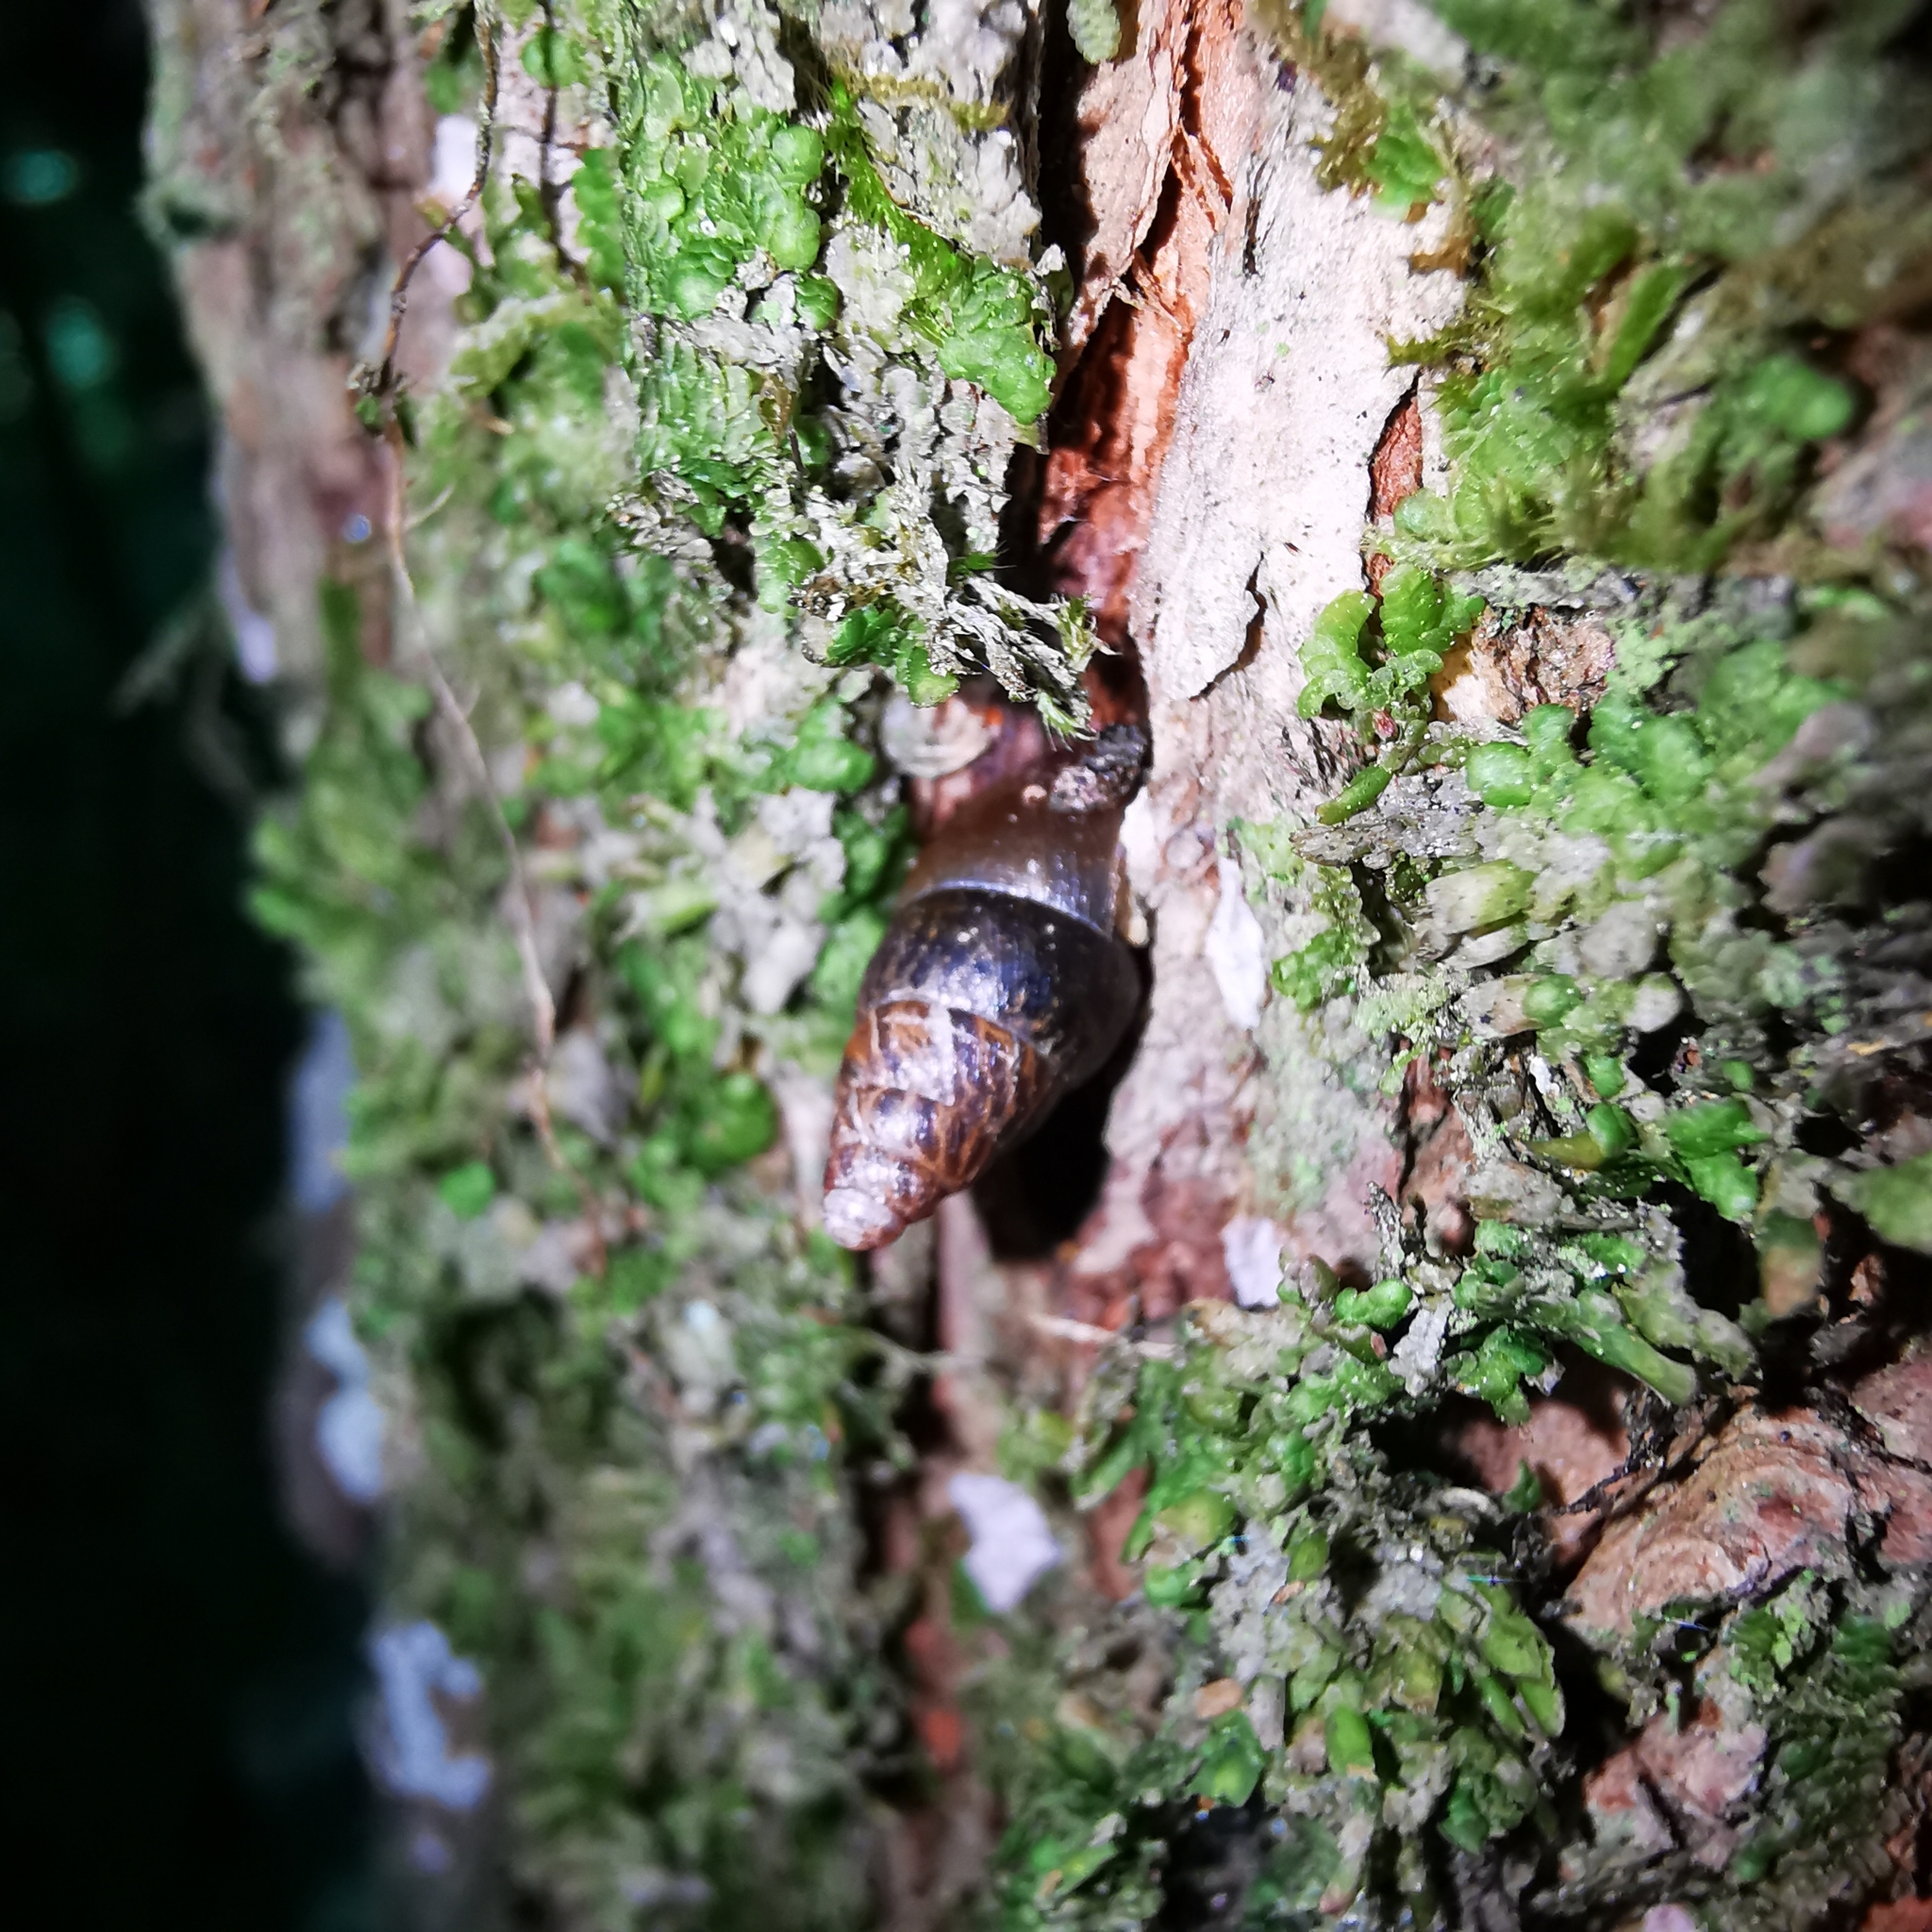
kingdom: Animalia
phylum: Mollusca
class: Gastropoda
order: Stylommatophora
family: Enidae
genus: Ena
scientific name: Ena montana
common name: Mountain bulin
